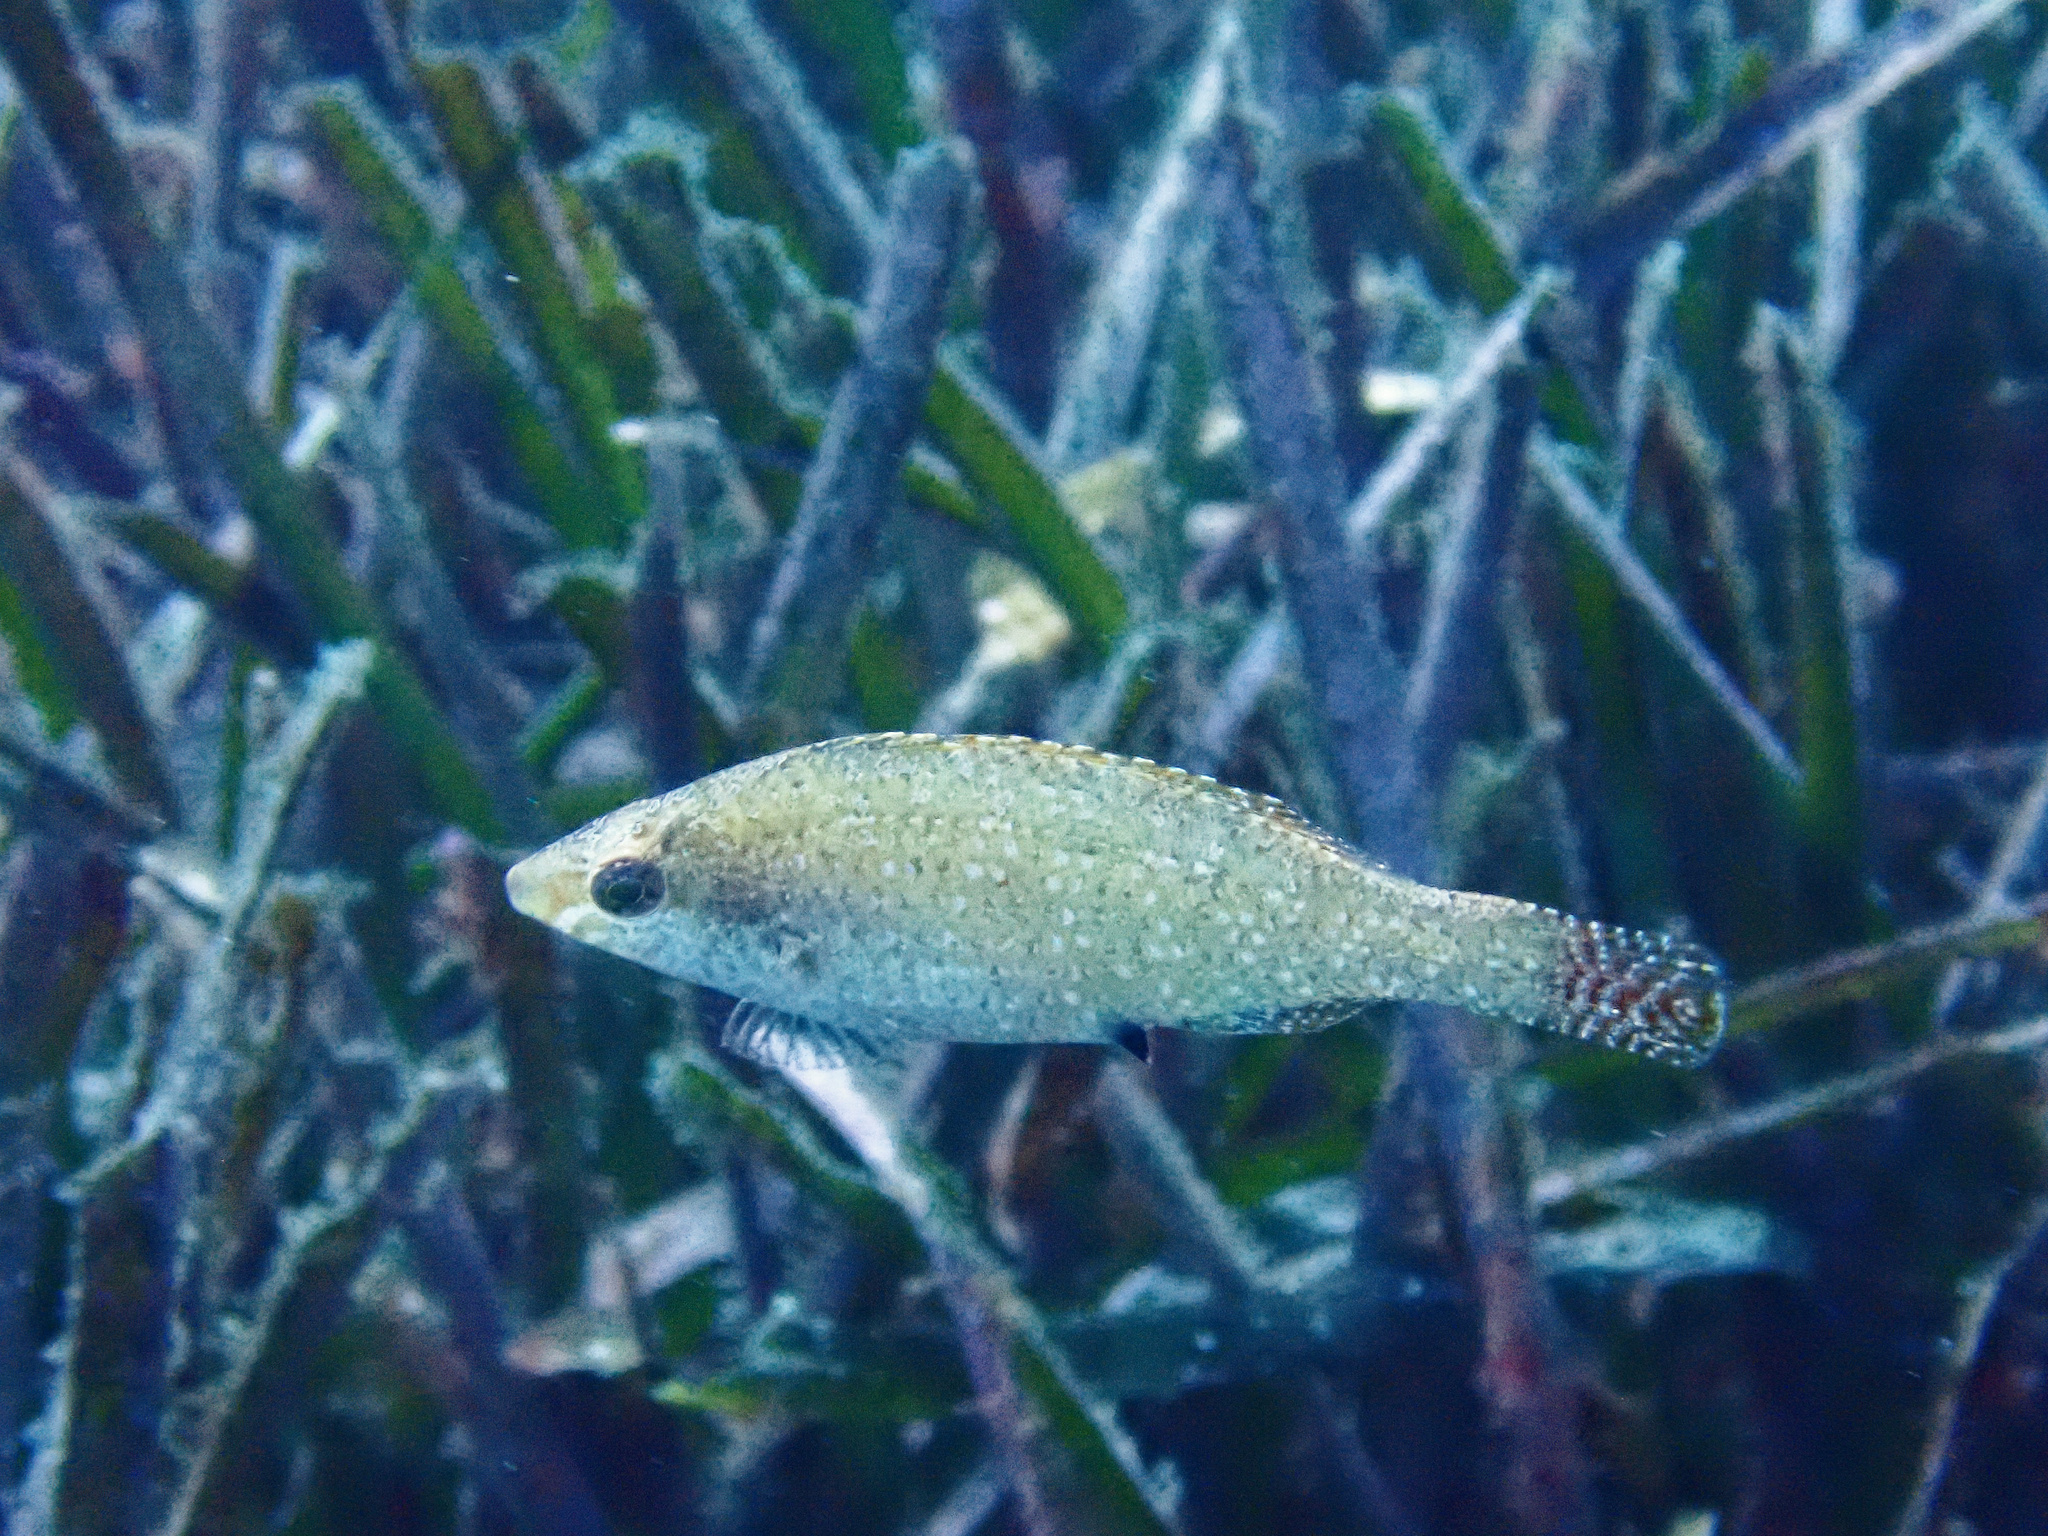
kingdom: Animalia
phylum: Chordata
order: Perciformes
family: Labridae
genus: Symphodus
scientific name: Symphodus cinereus
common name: Grey wrasse
